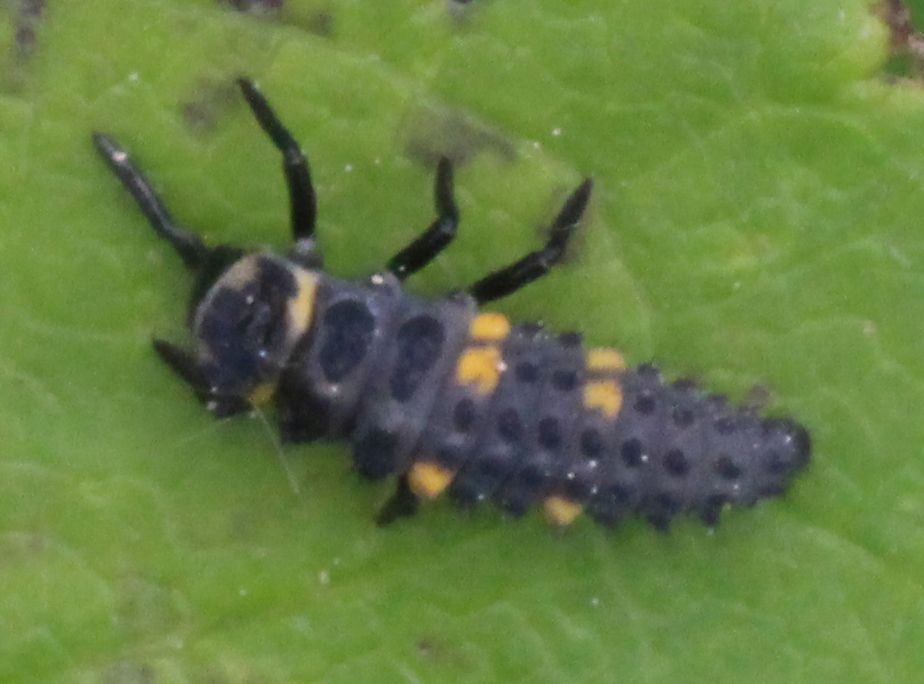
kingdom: Animalia
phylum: Arthropoda
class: Insecta
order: Coleoptera
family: Coccinellidae
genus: Coccinella
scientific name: Coccinella septempunctata
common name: Sevenspotted lady beetle
